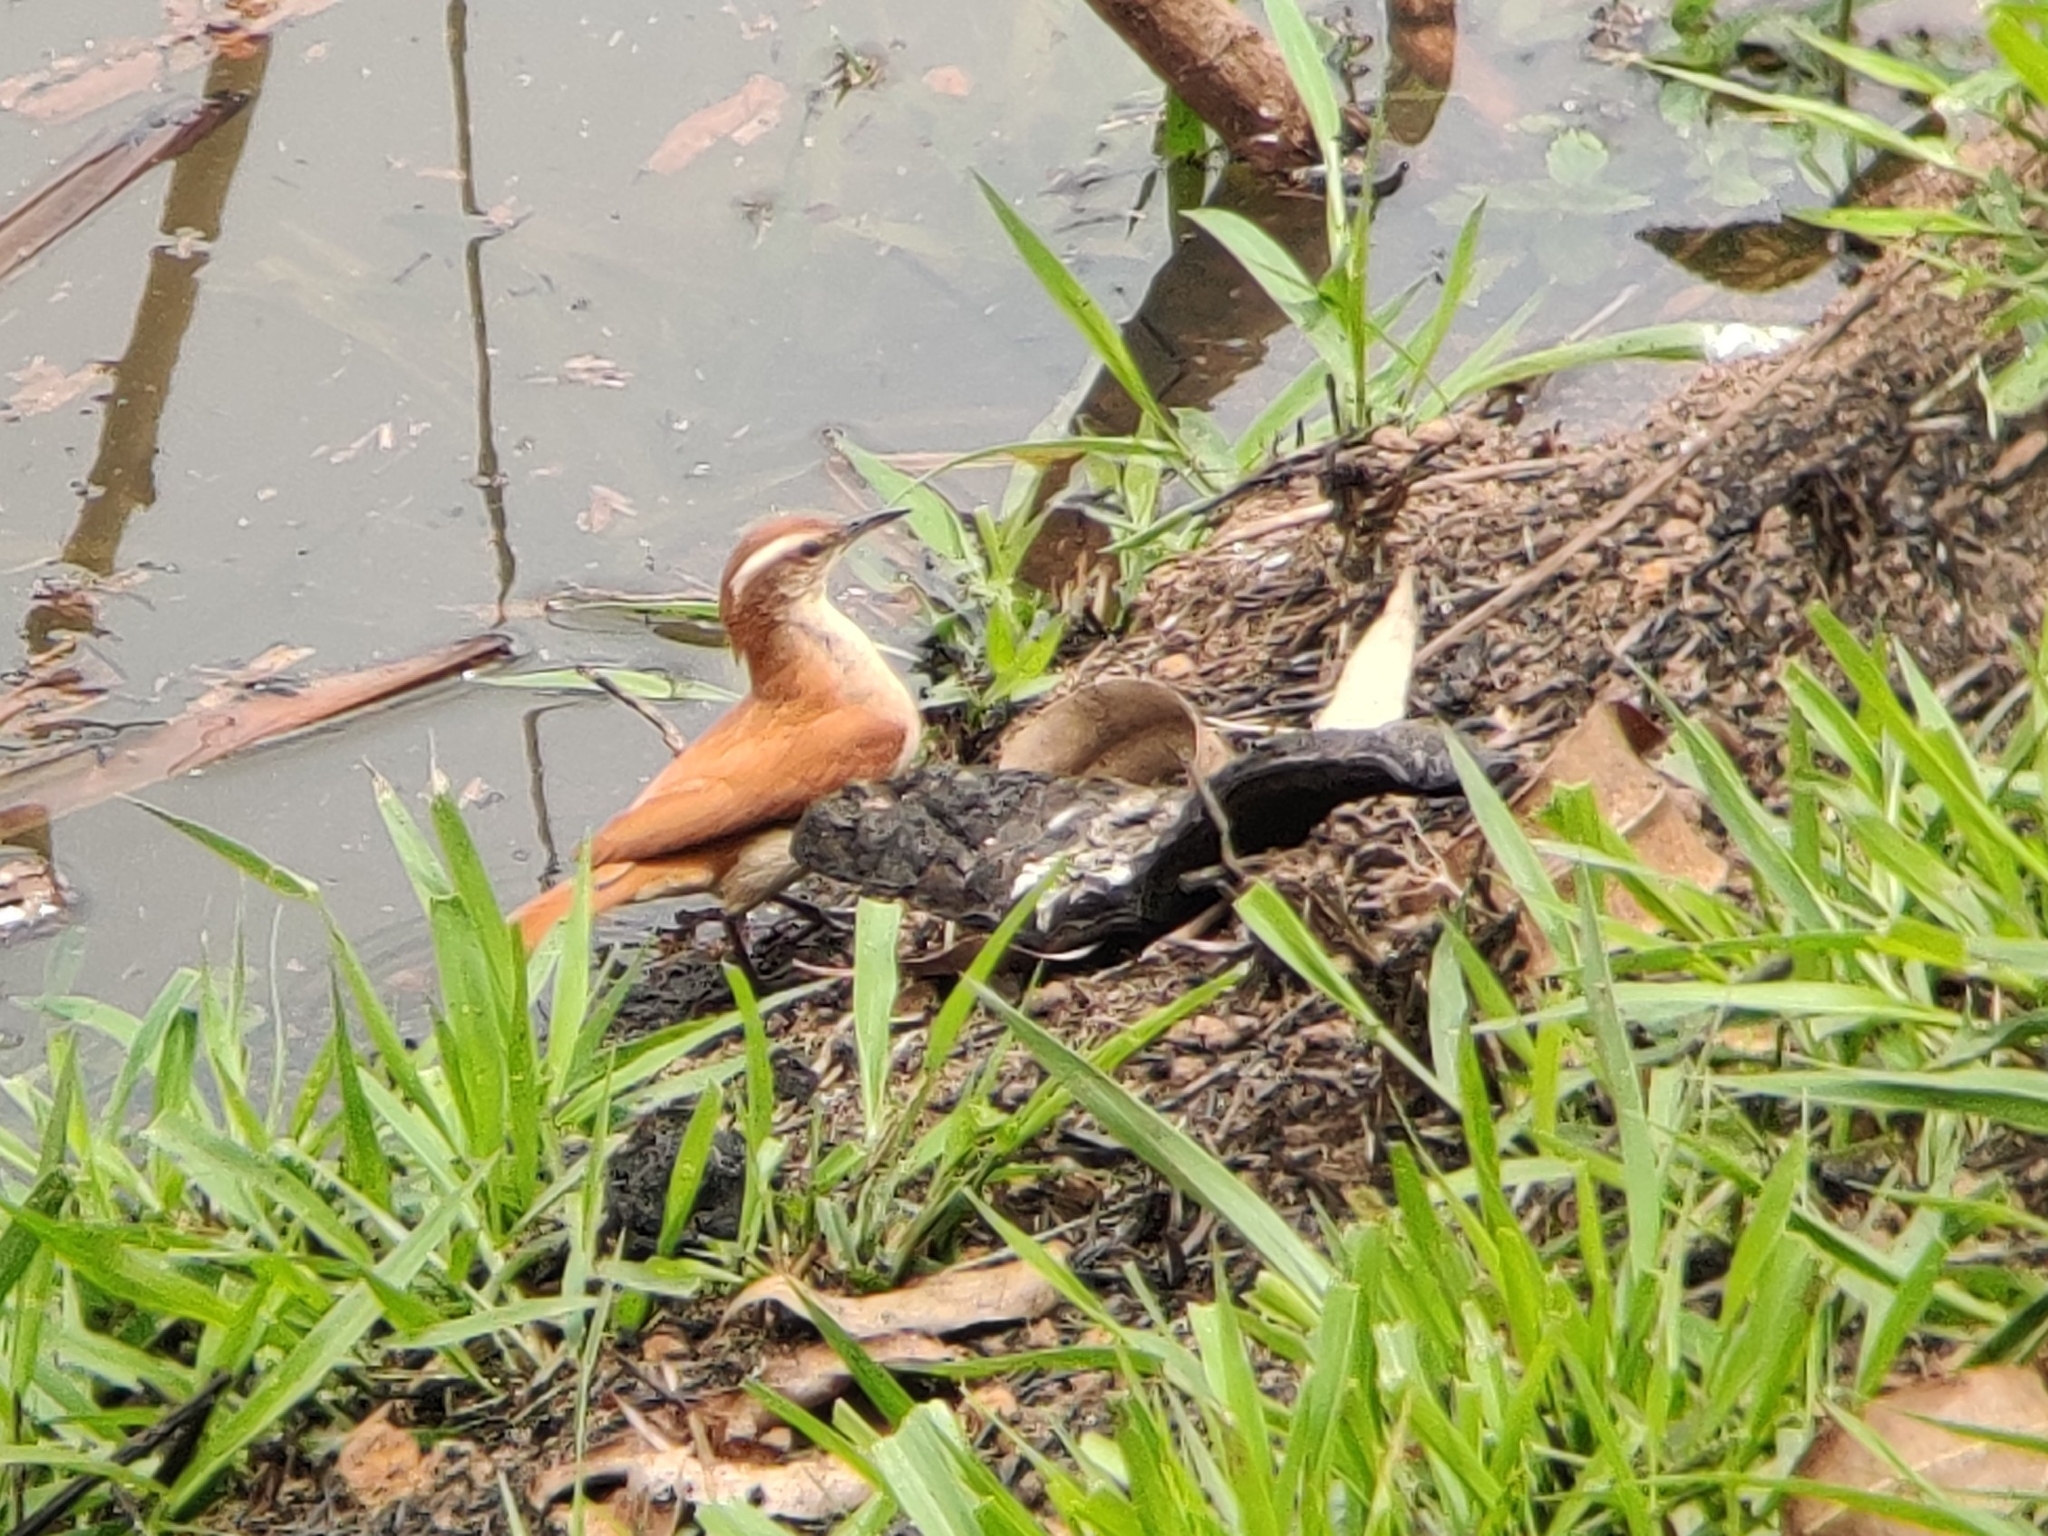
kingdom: Animalia
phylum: Chordata
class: Aves
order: Passeriformes
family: Furnariidae
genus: Furnarius
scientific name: Furnarius figulus
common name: Band-tailed hornero
